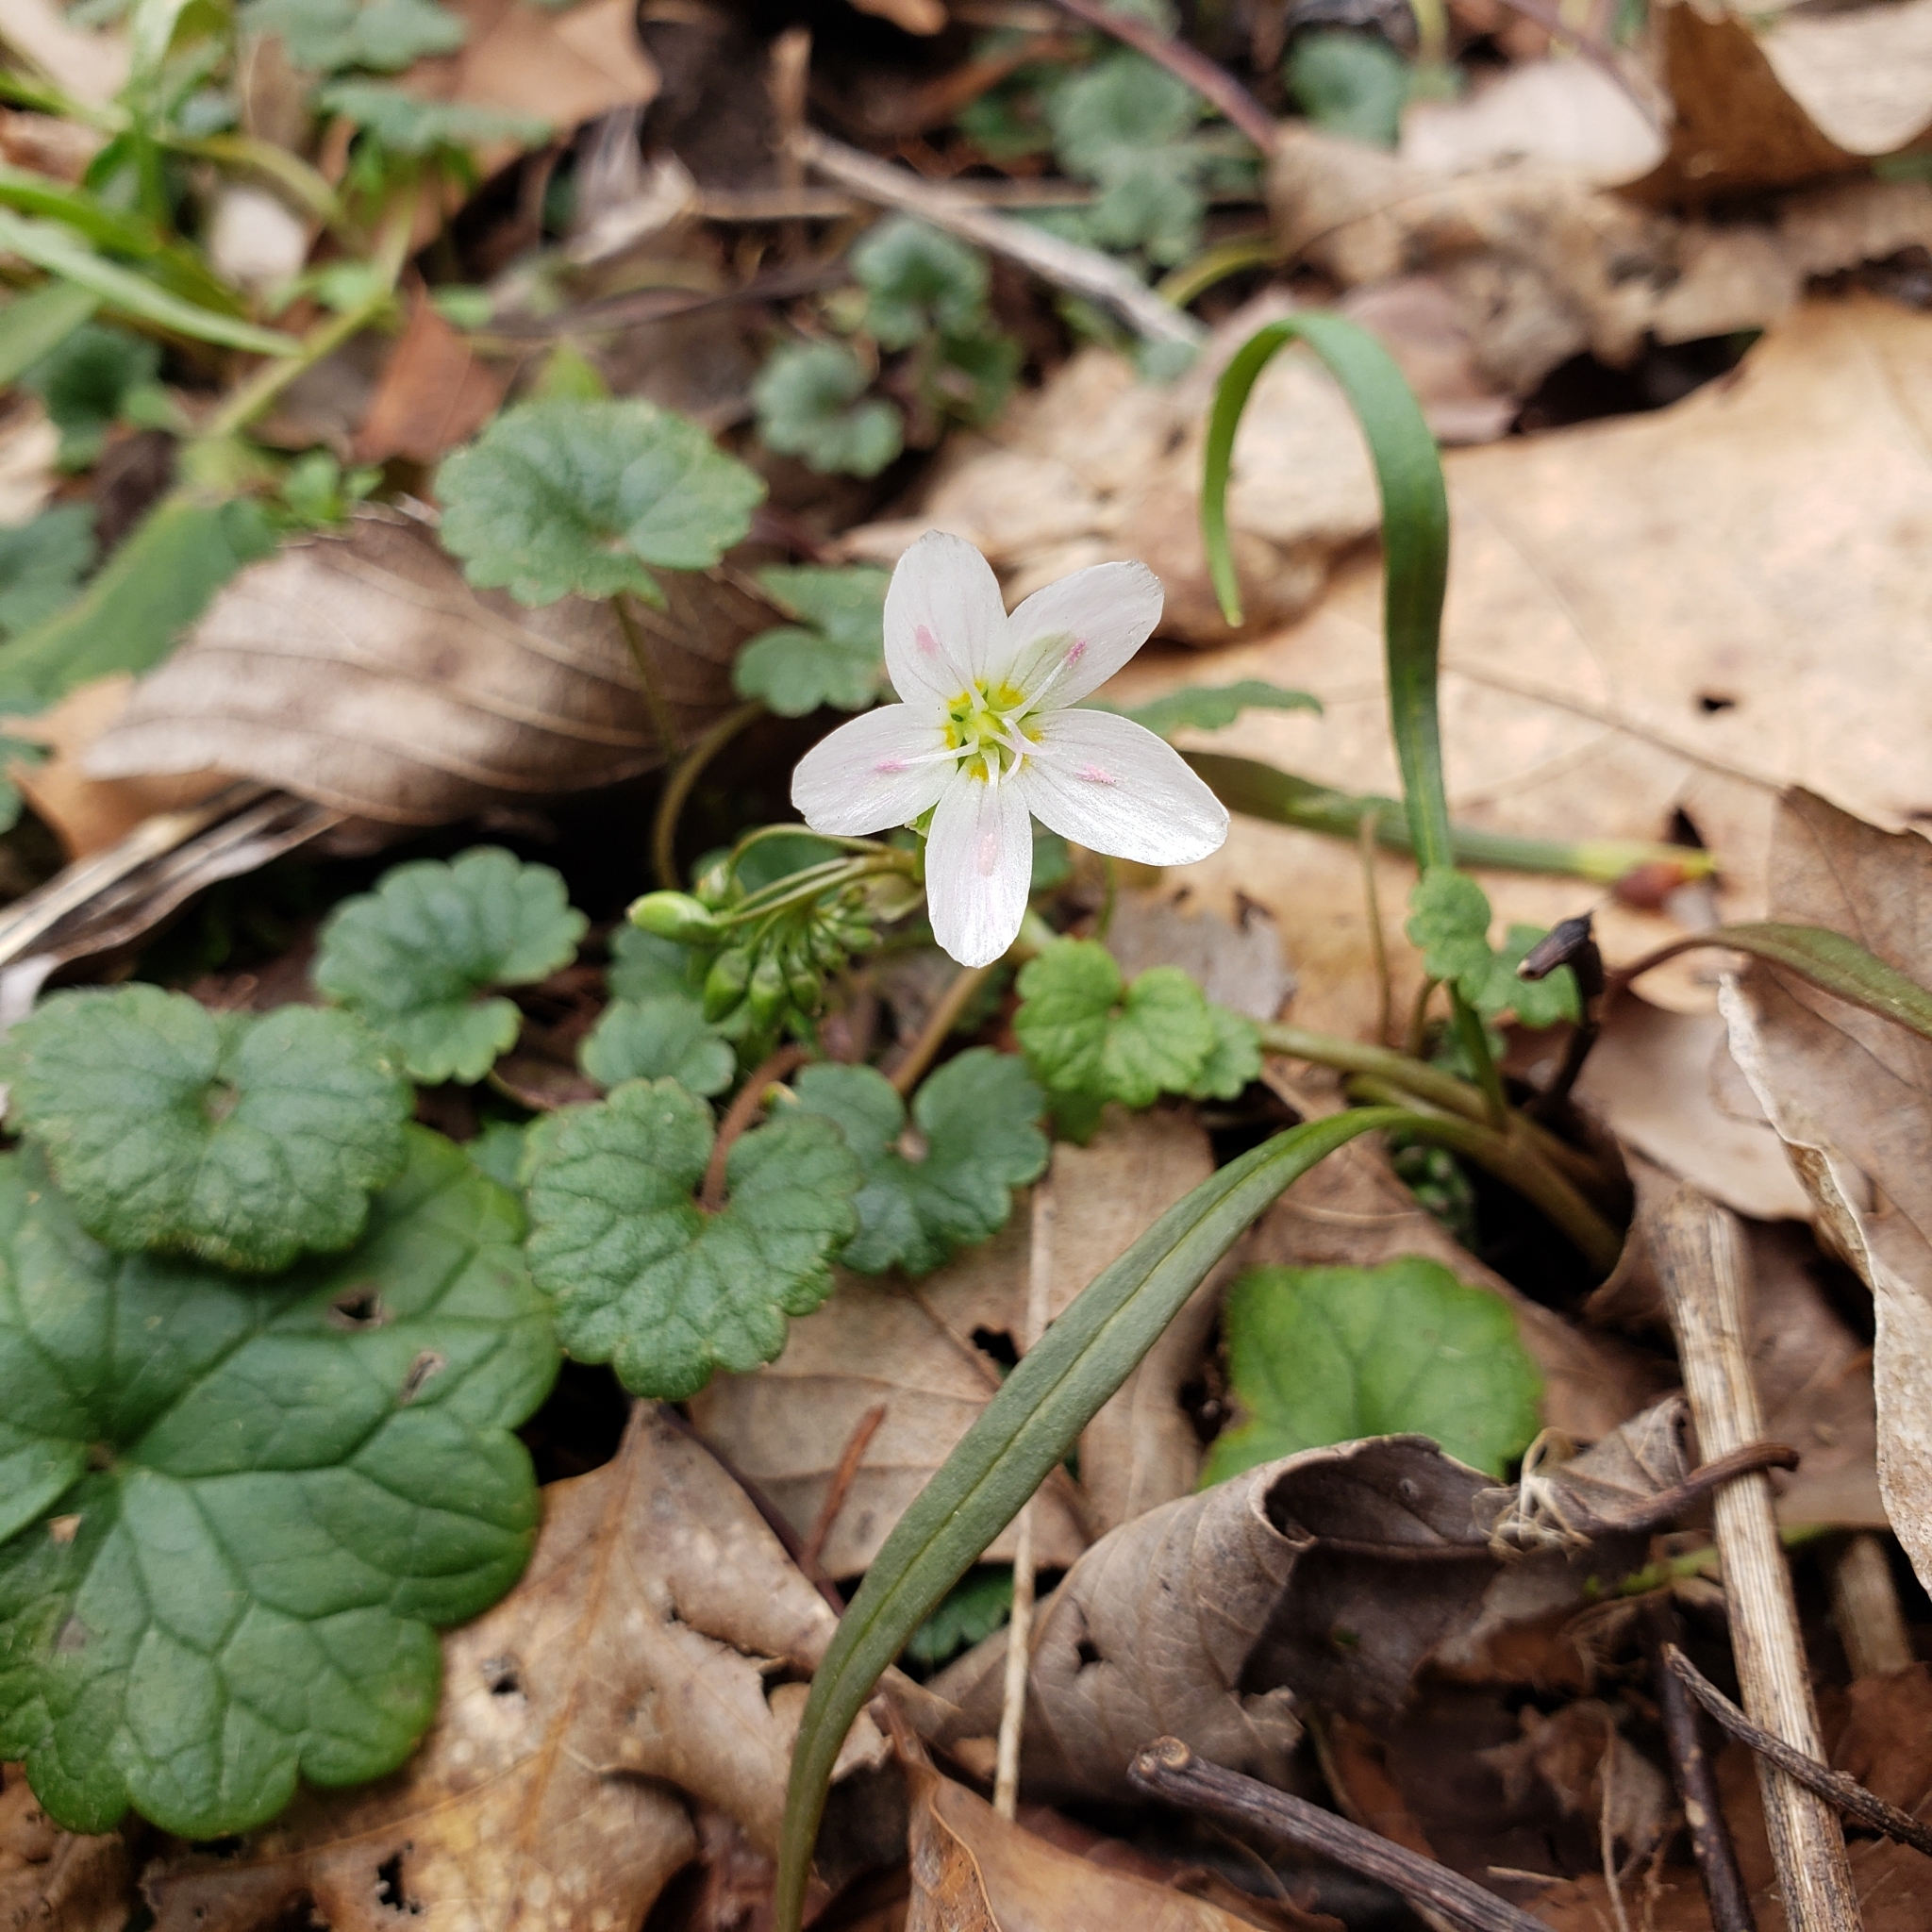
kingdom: Plantae
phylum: Tracheophyta
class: Magnoliopsida
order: Caryophyllales
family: Montiaceae
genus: Claytonia
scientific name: Claytonia virginica
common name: Virginia springbeauty
